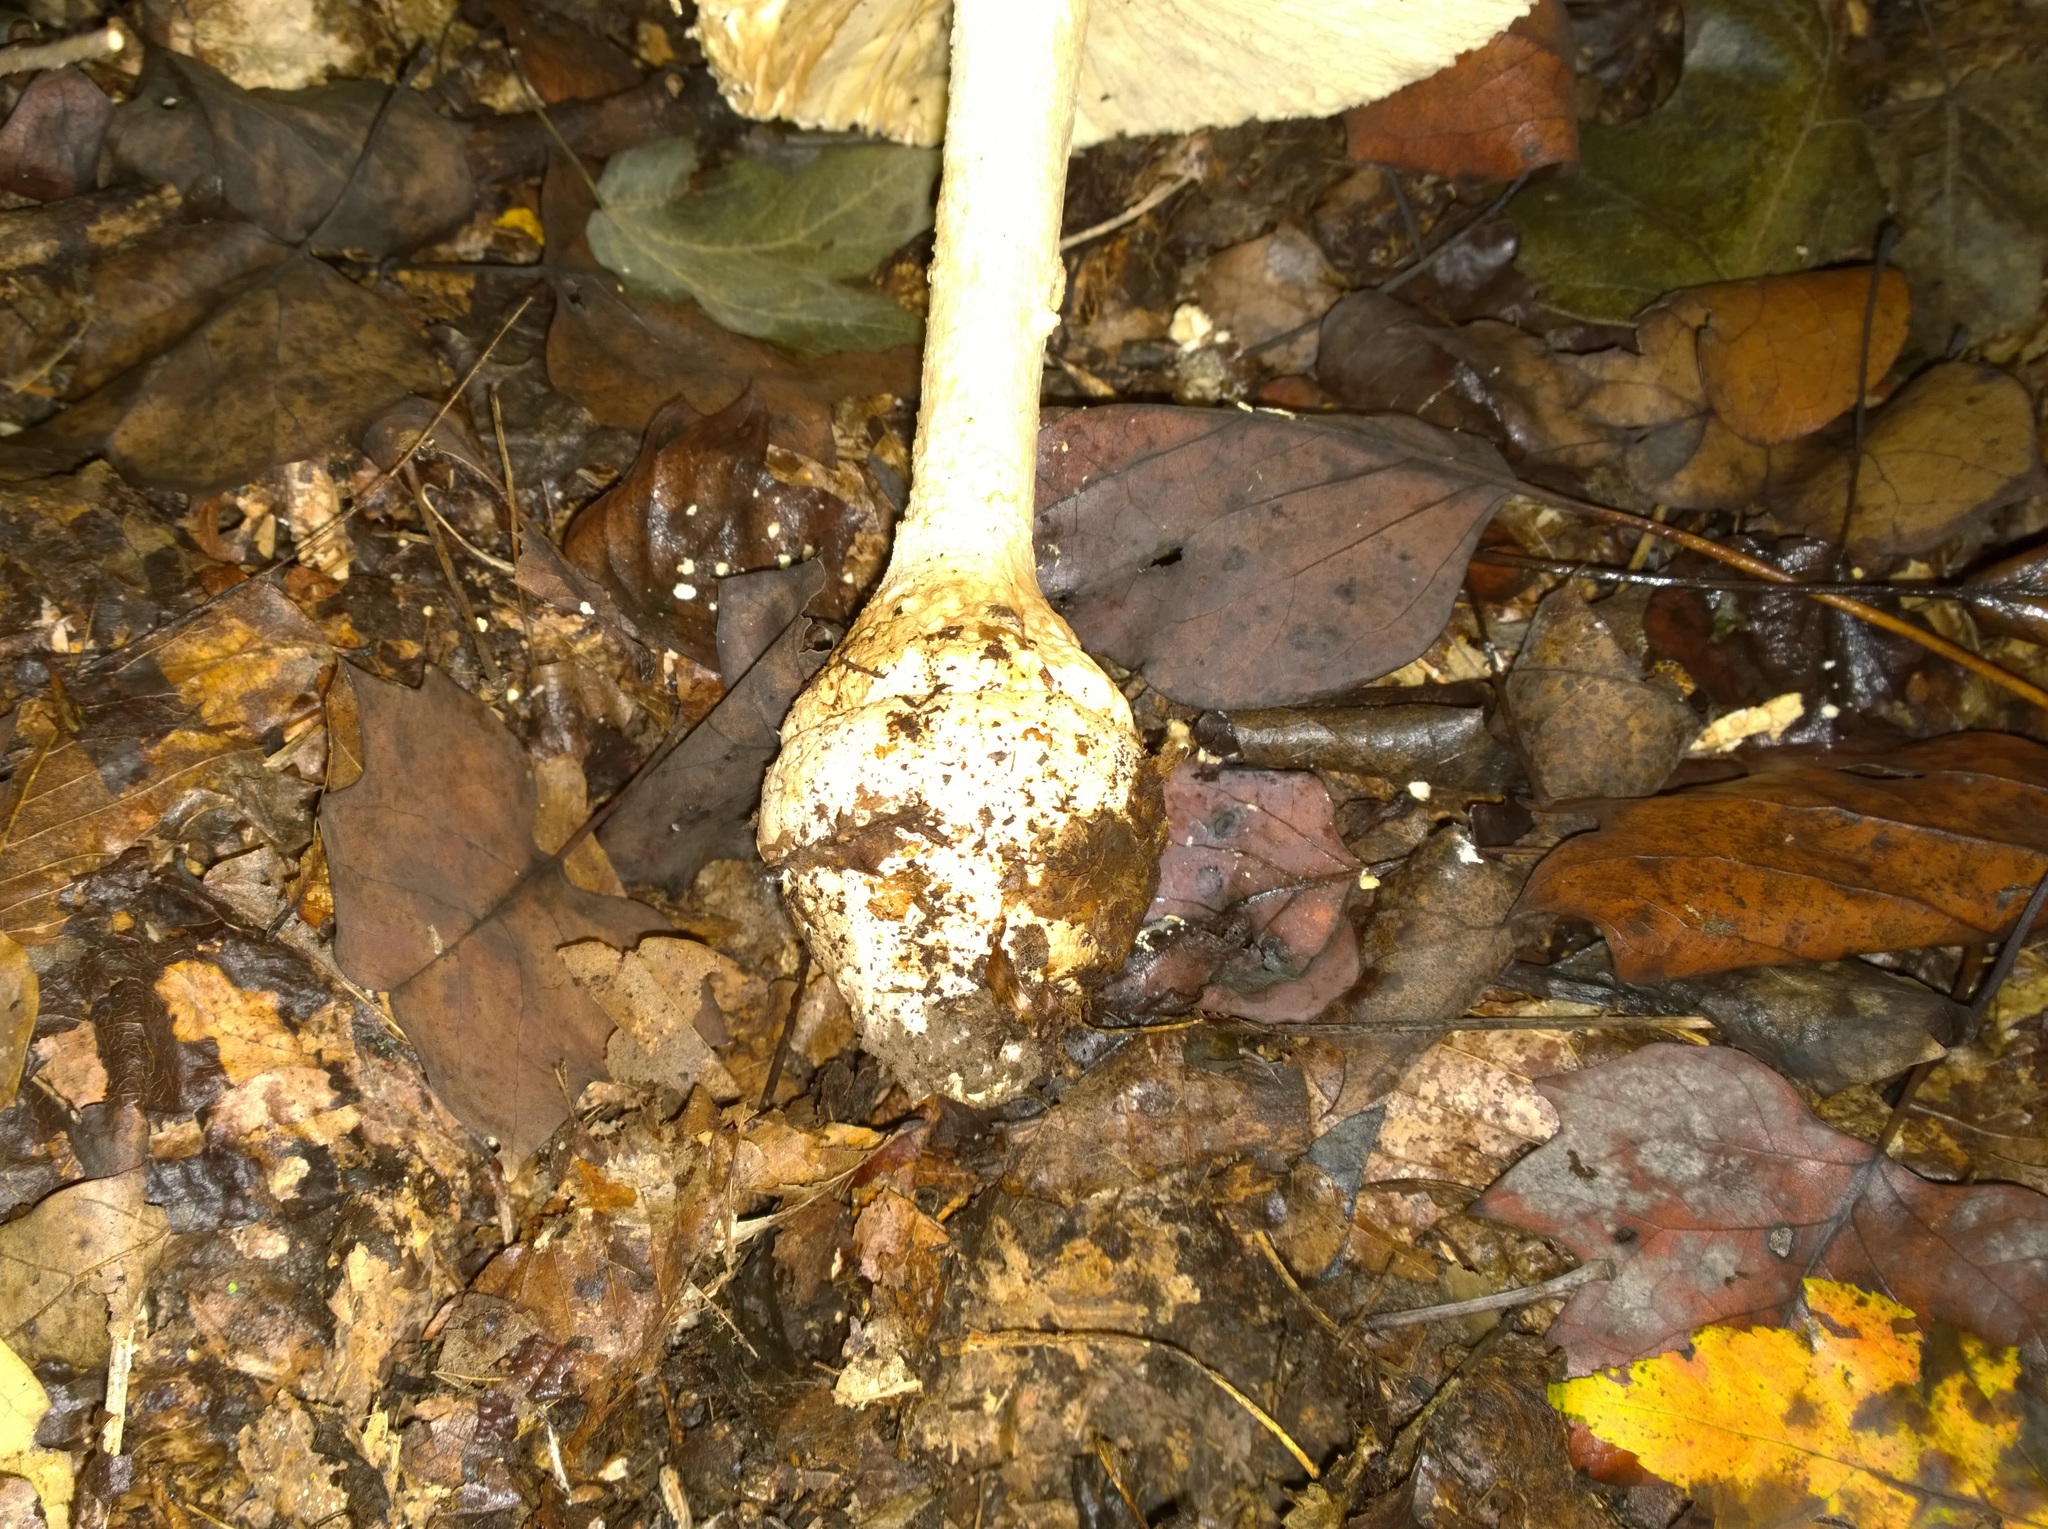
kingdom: Fungi
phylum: Basidiomycota
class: Agaricomycetes
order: Agaricales
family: Amanitaceae
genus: Amanita
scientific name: Amanita ravenelii
